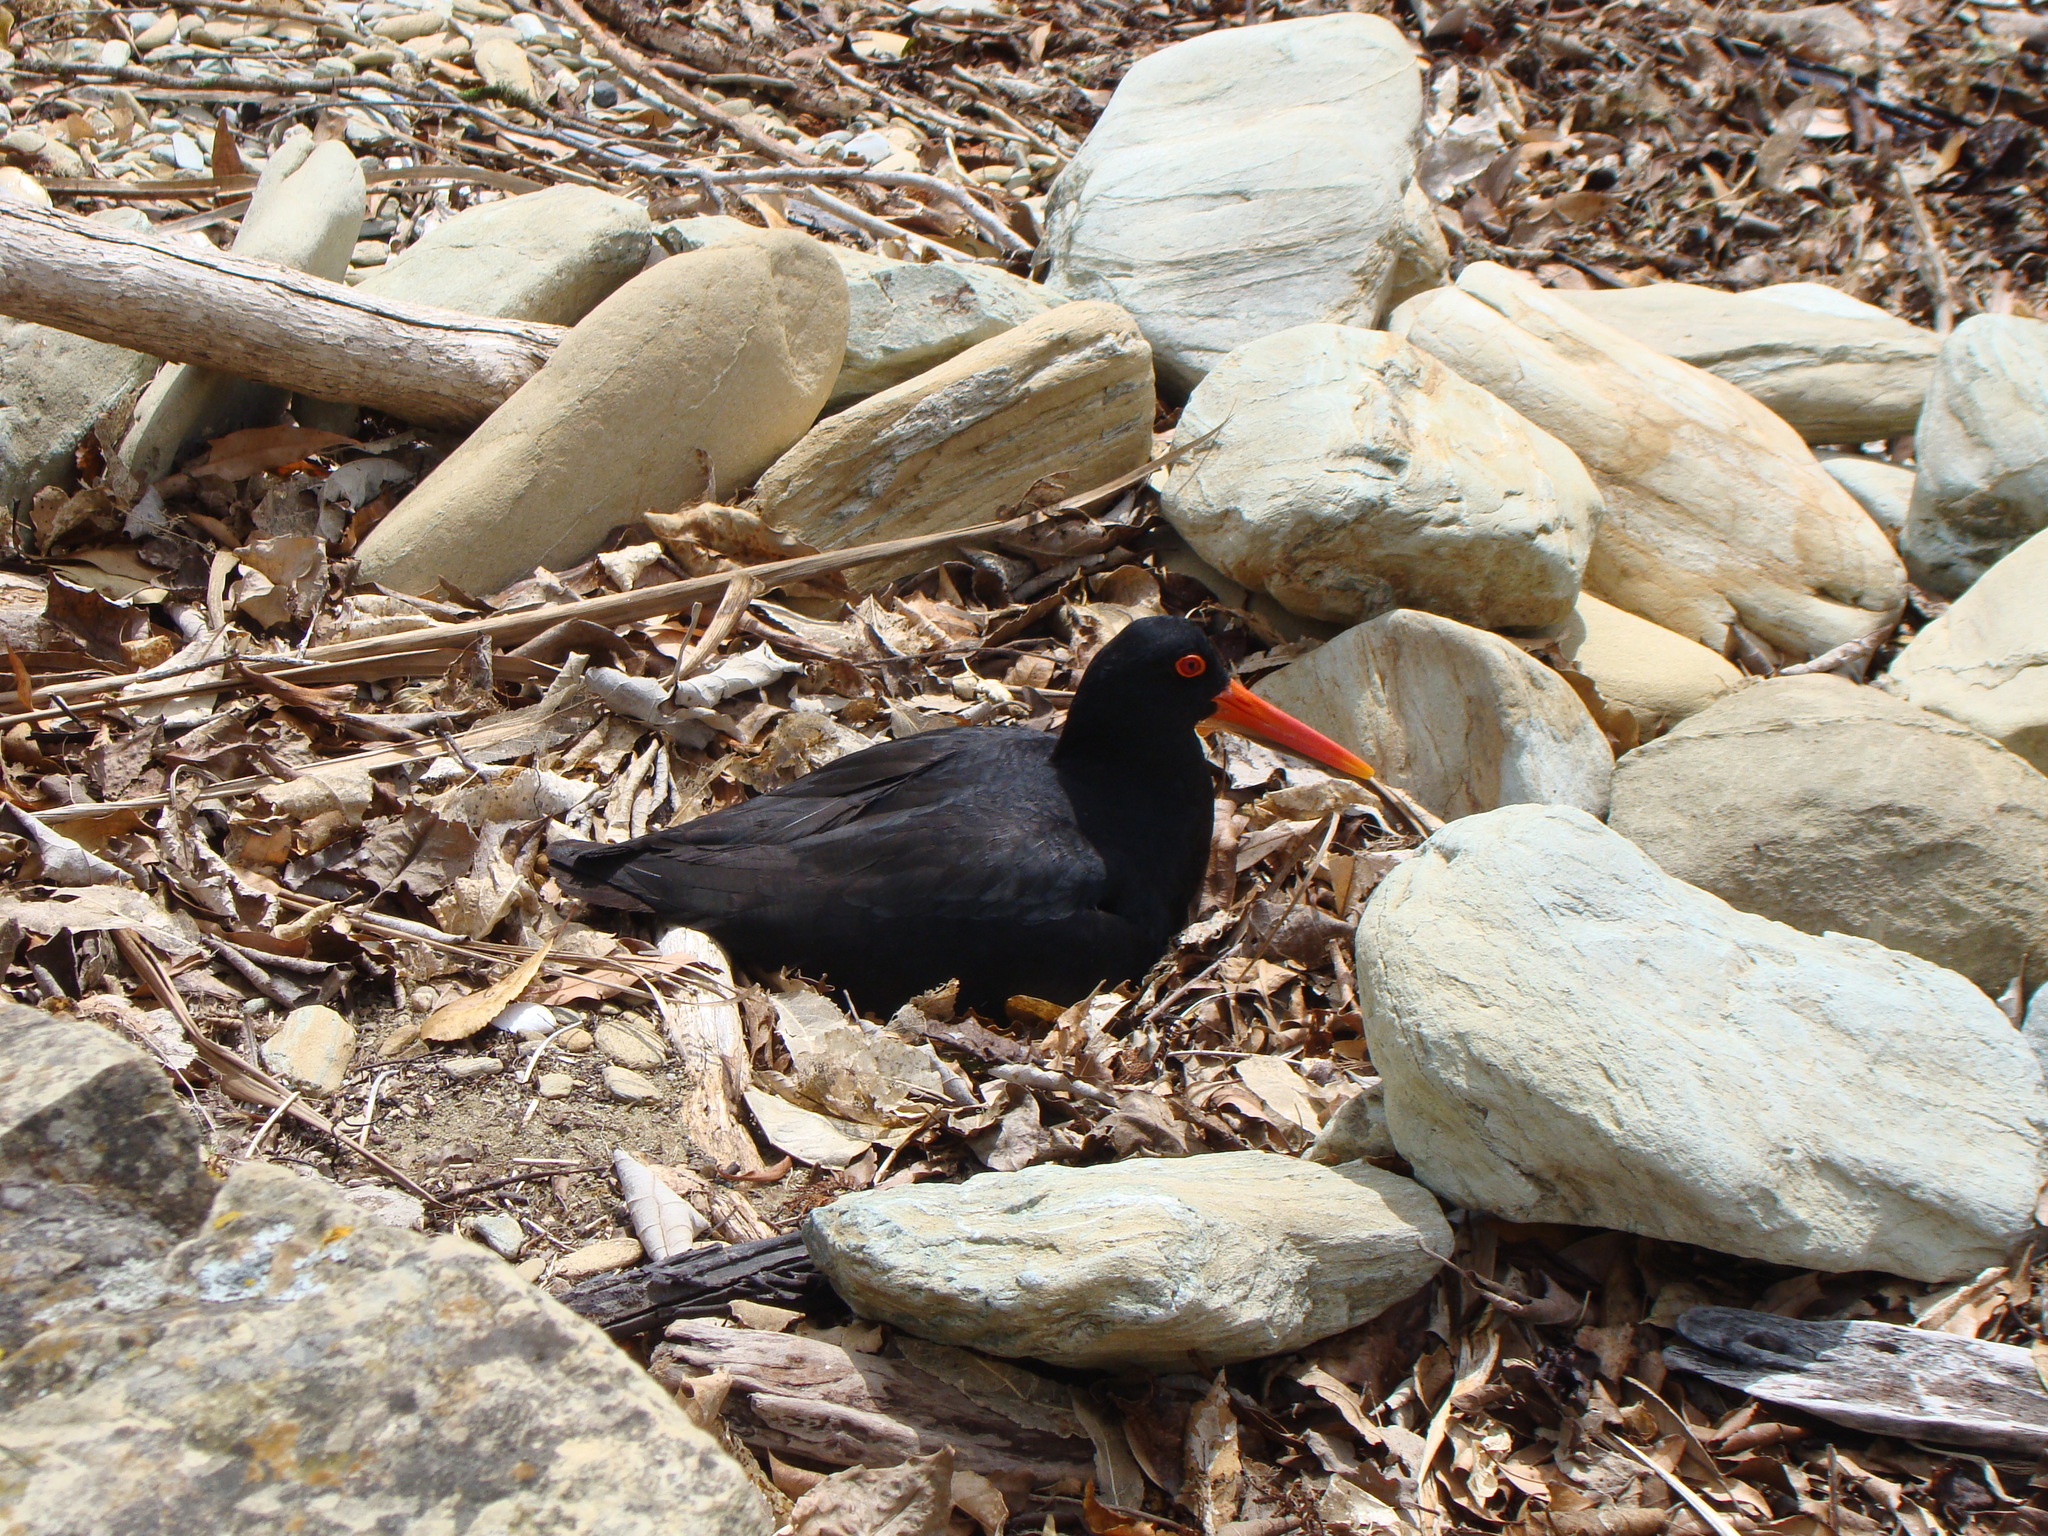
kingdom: Animalia
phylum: Chordata
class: Aves
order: Charadriiformes
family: Haematopodidae
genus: Haematopus
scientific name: Haematopus unicolor
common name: Variable oystercatcher
